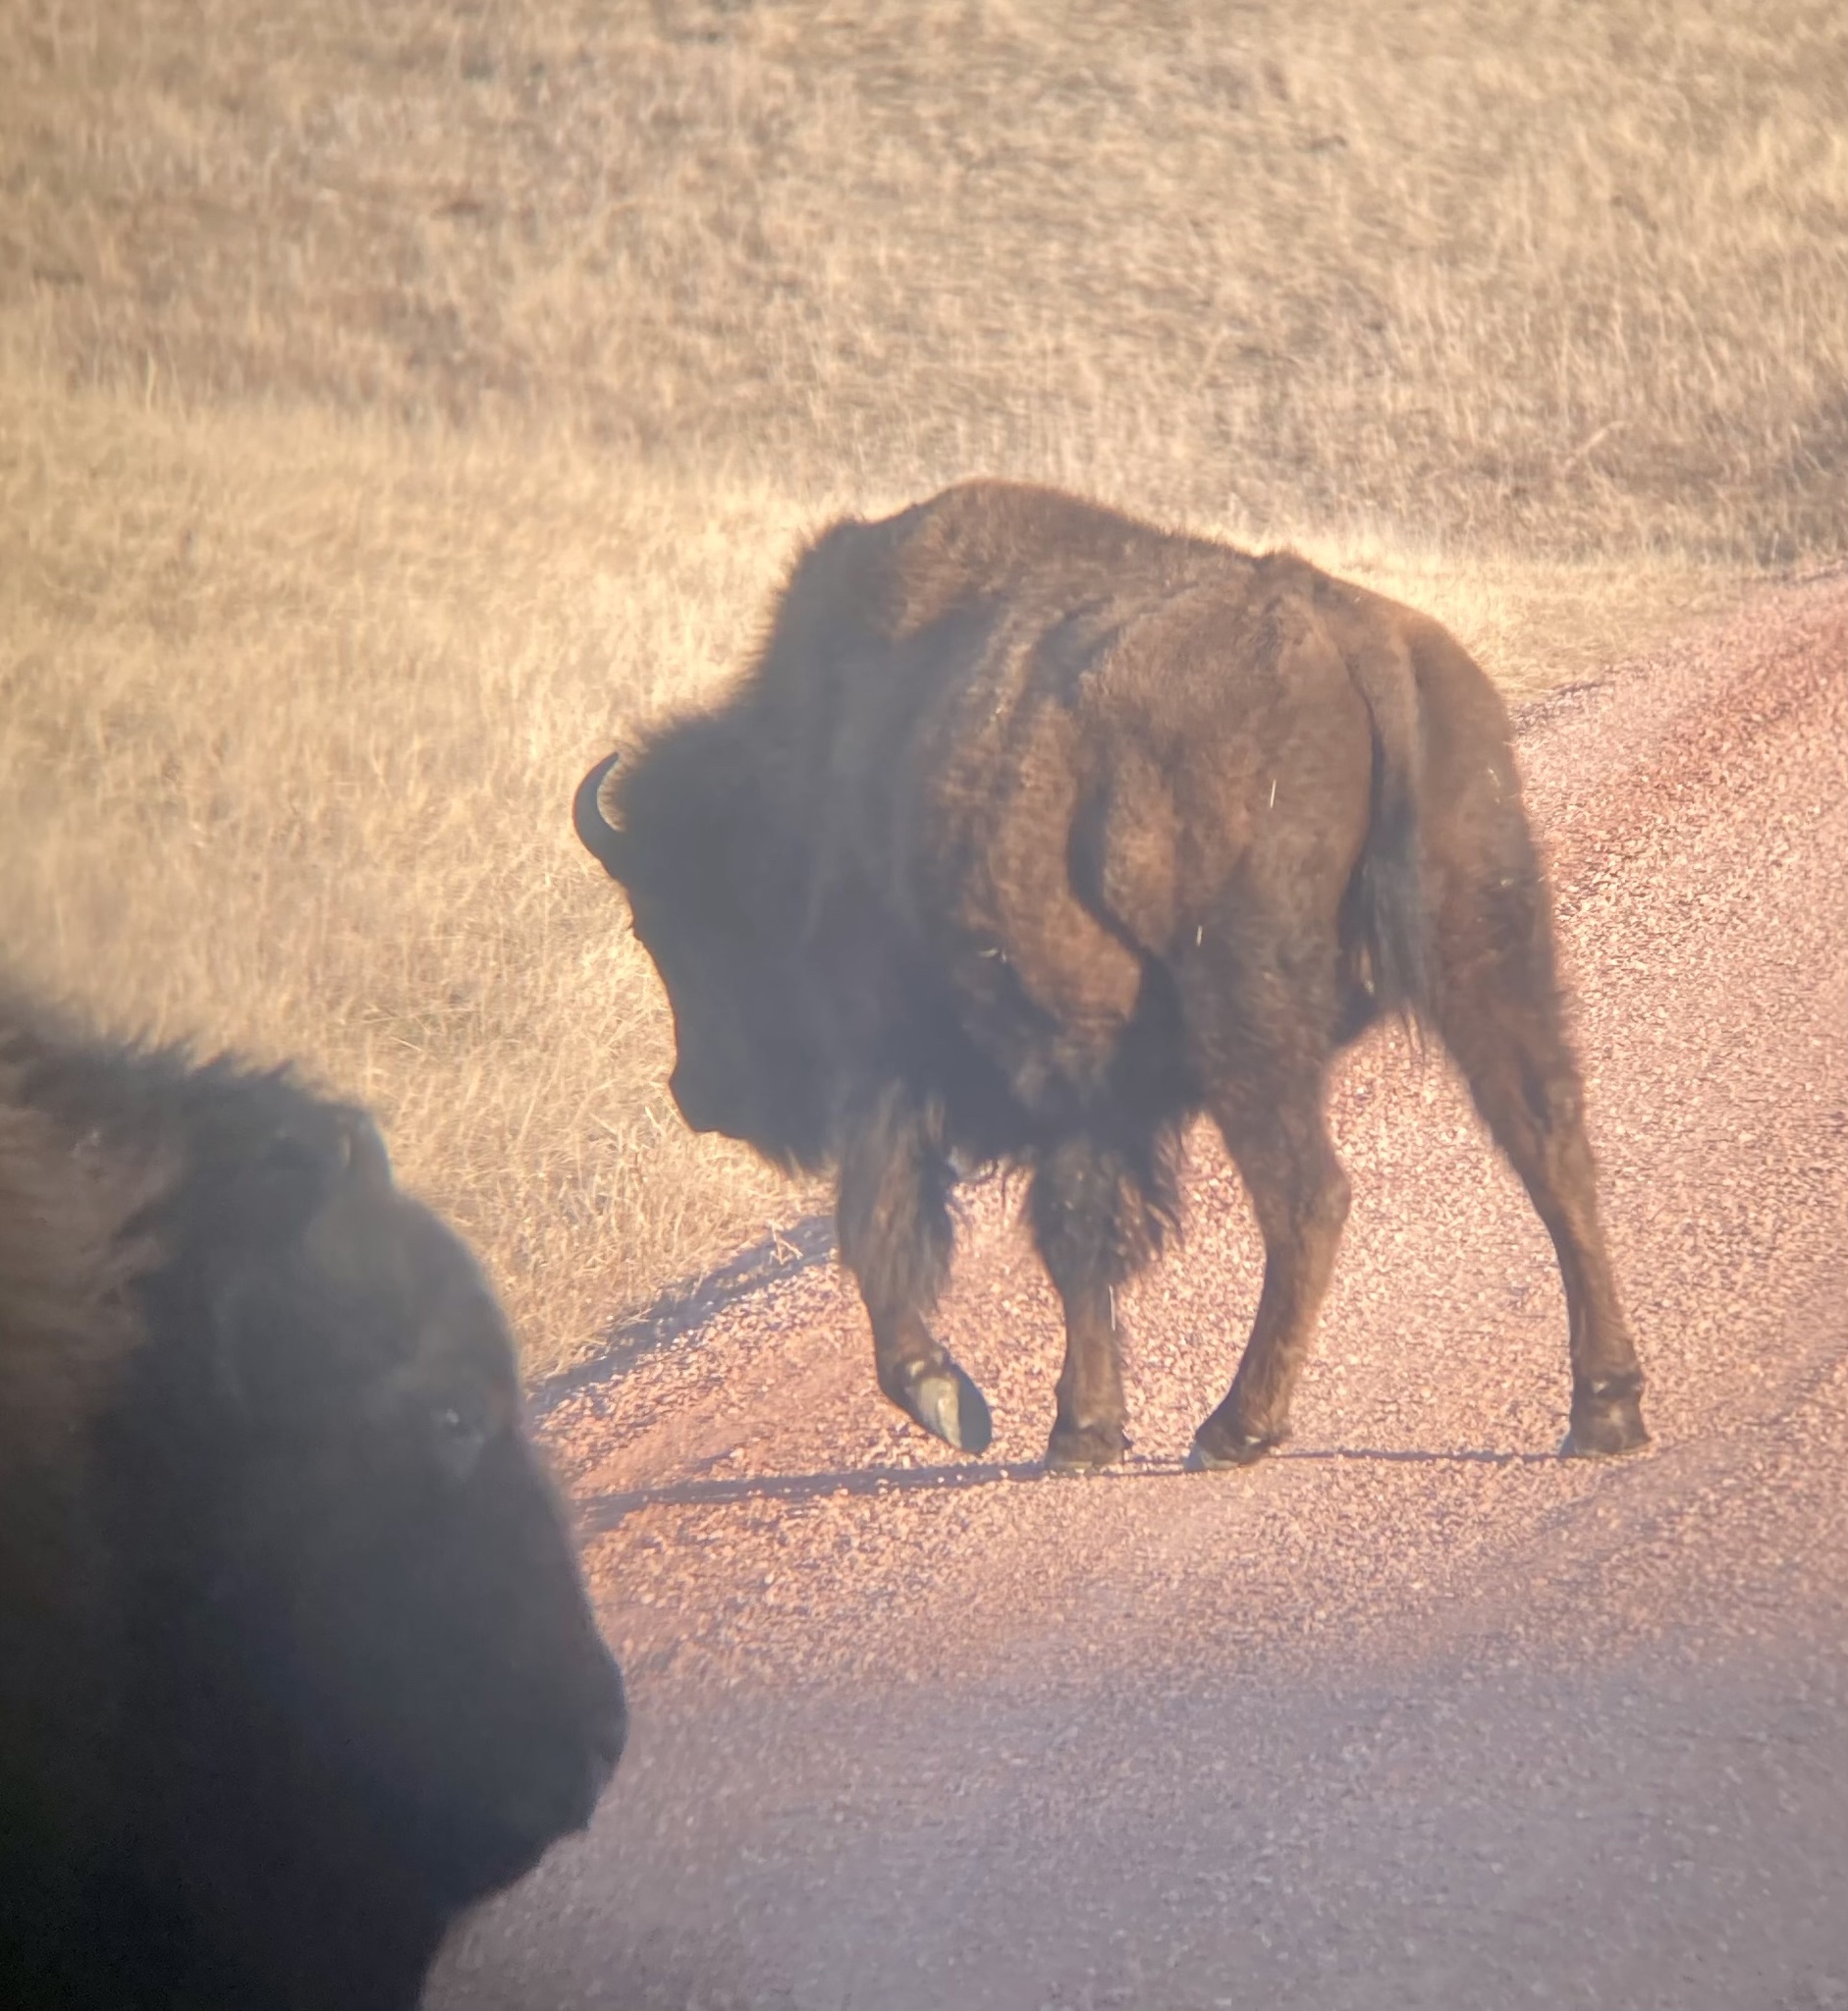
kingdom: Animalia
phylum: Chordata
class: Mammalia
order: Artiodactyla
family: Bovidae
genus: Bison
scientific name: Bison bison
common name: American bison
